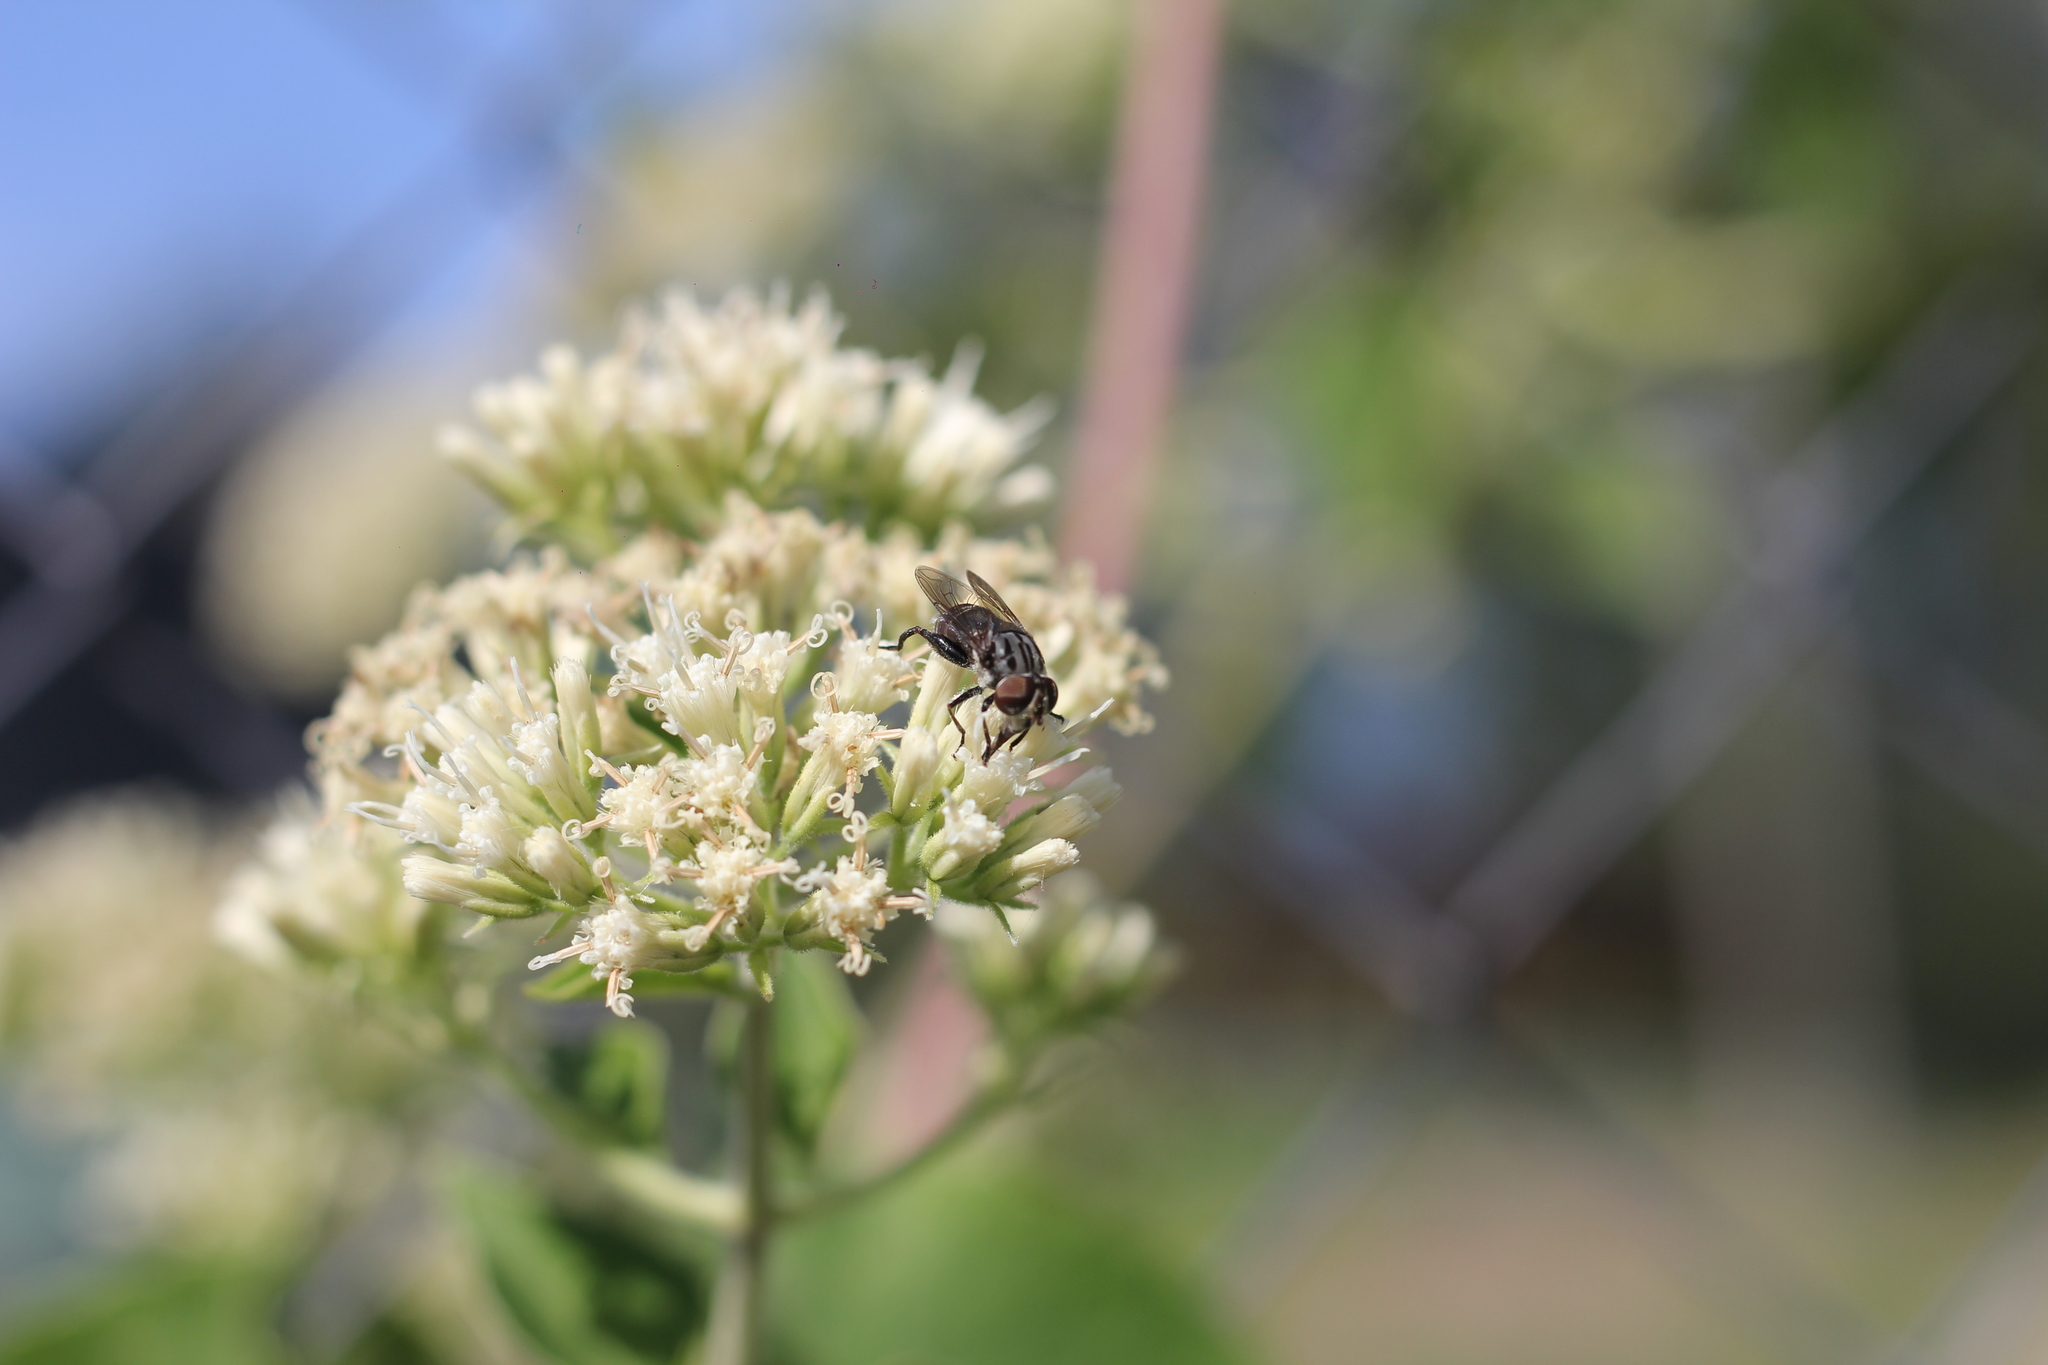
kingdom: Animalia
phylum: Arthropoda
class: Insecta
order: Diptera
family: Syrphidae
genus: Palpada
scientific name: Palpada furcata
